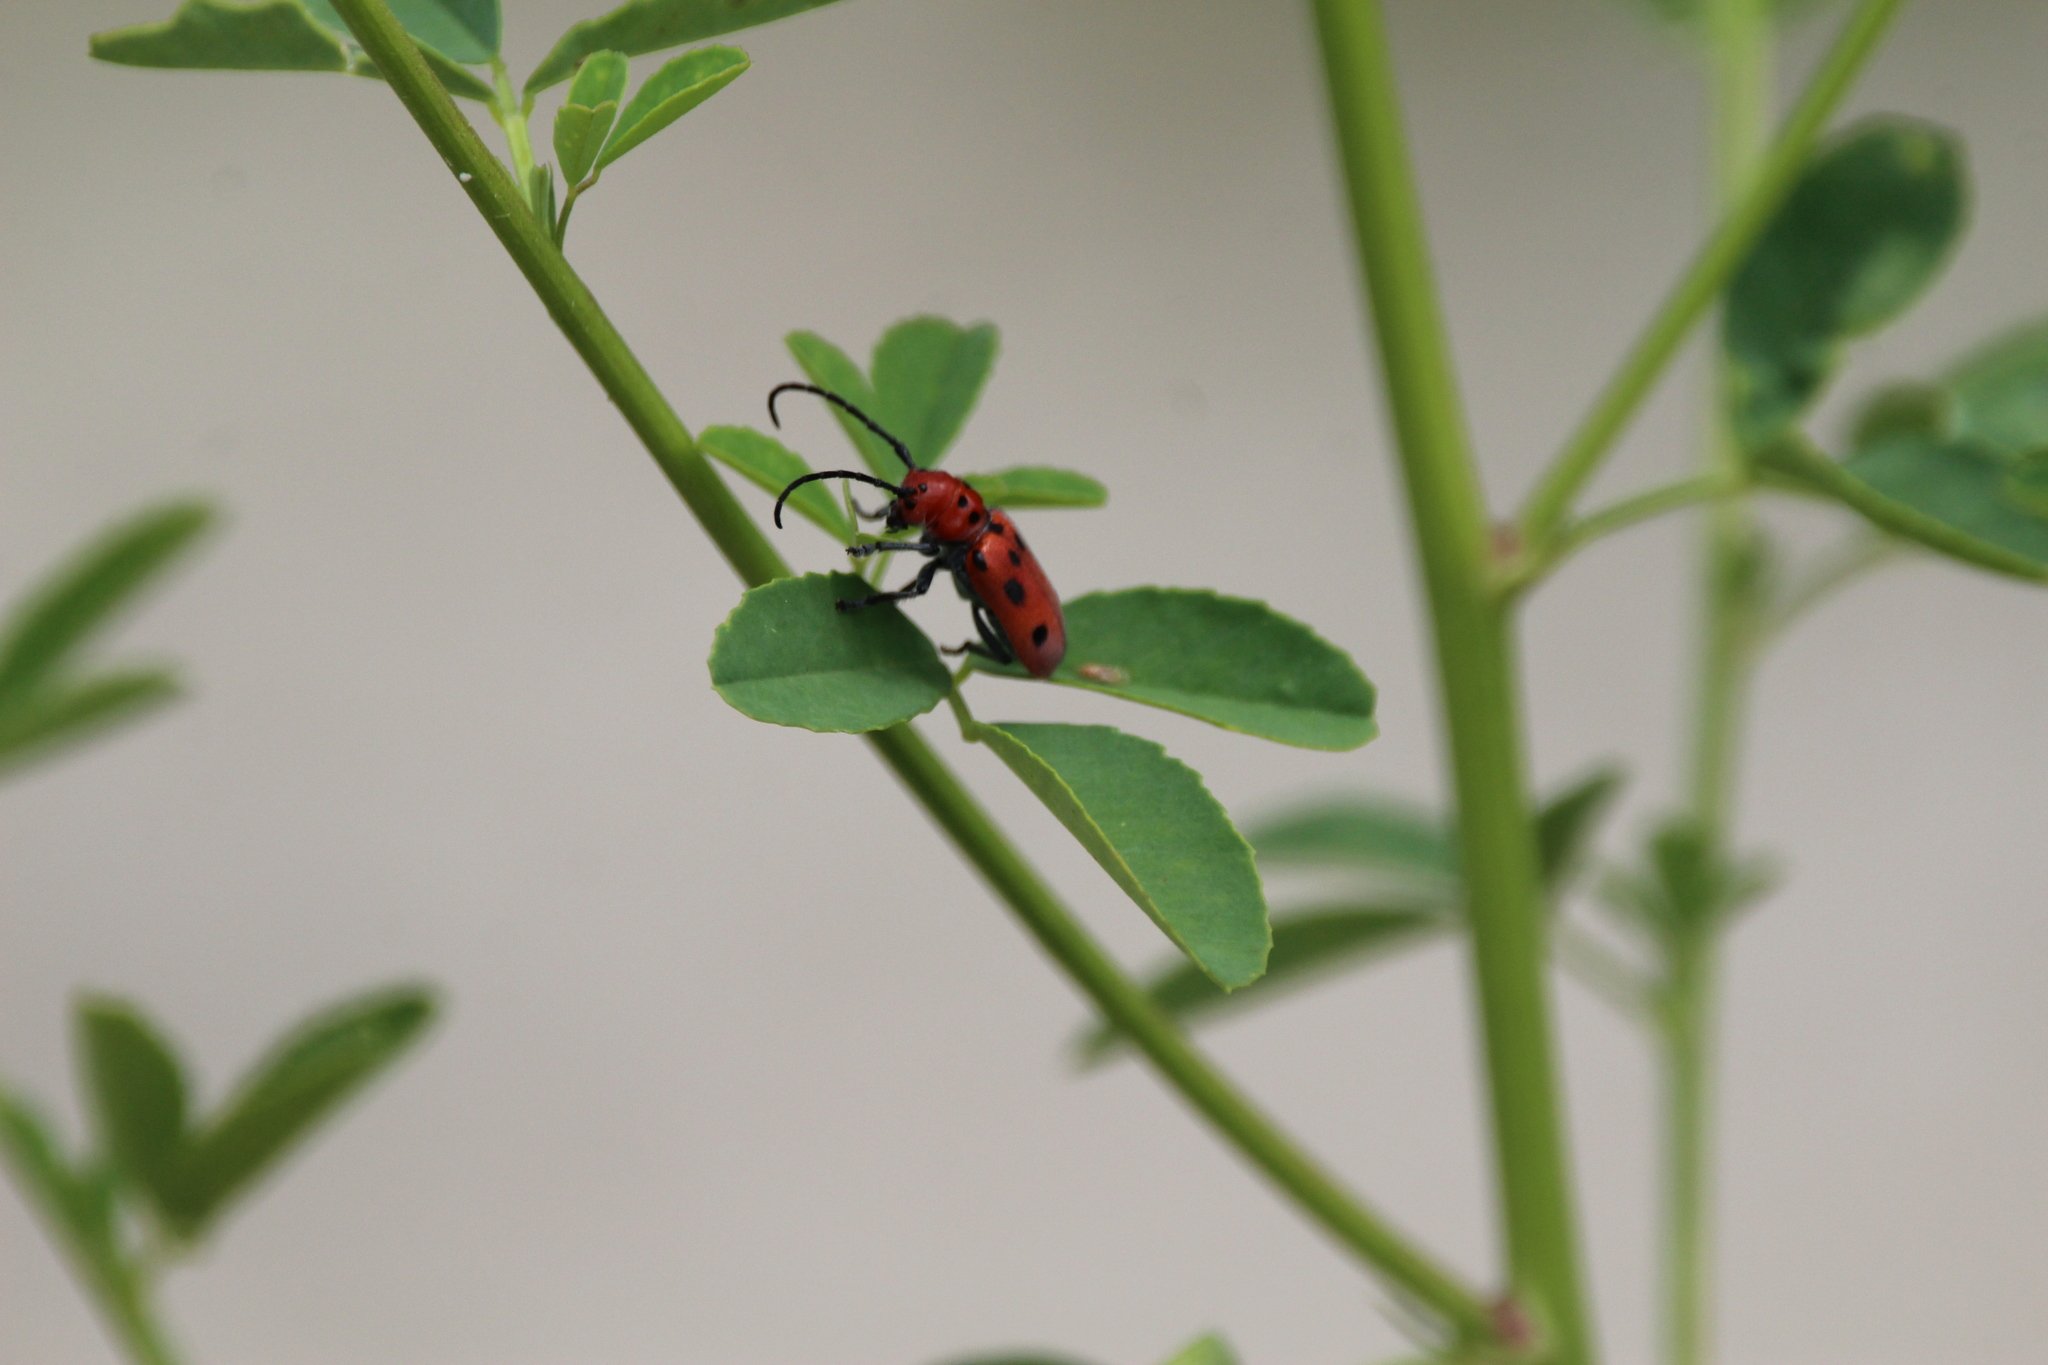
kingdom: Animalia
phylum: Arthropoda
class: Insecta
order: Coleoptera
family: Cerambycidae
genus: Tetraopes
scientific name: Tetraopes tetrophthalmus
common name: Red milkweed beetle
